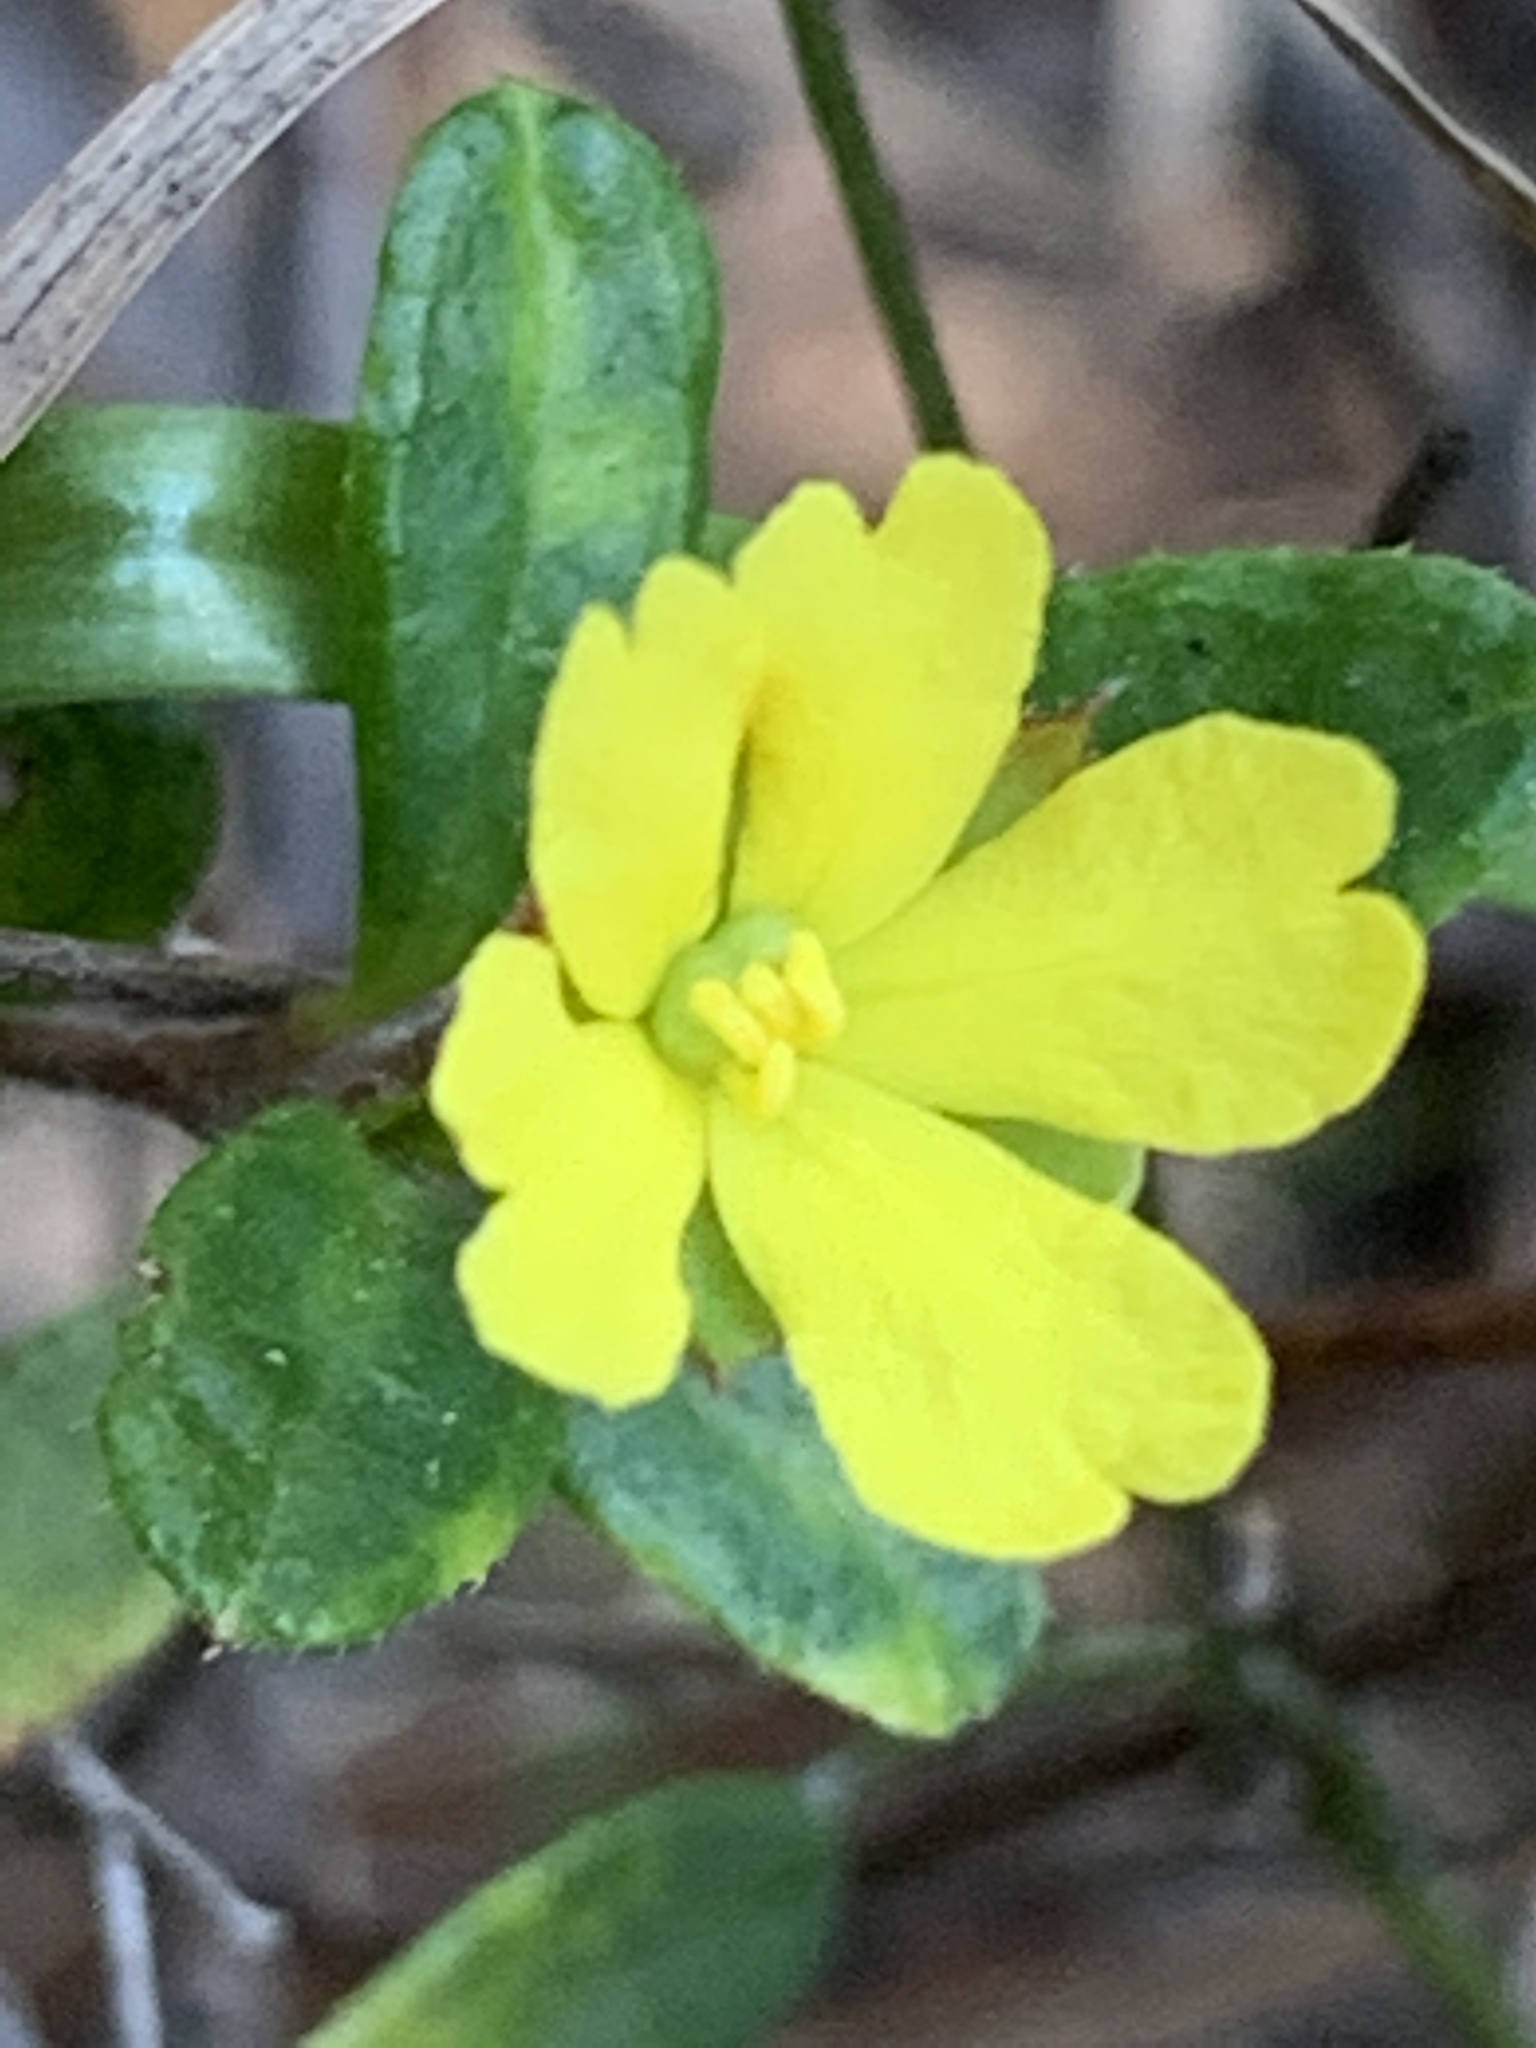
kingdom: Plantae
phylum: Tracheophyta
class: Magnoliopsida
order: Dilleniales
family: Dilleniaceae
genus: Hibbertia
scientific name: Hibbertia empetrifolia
